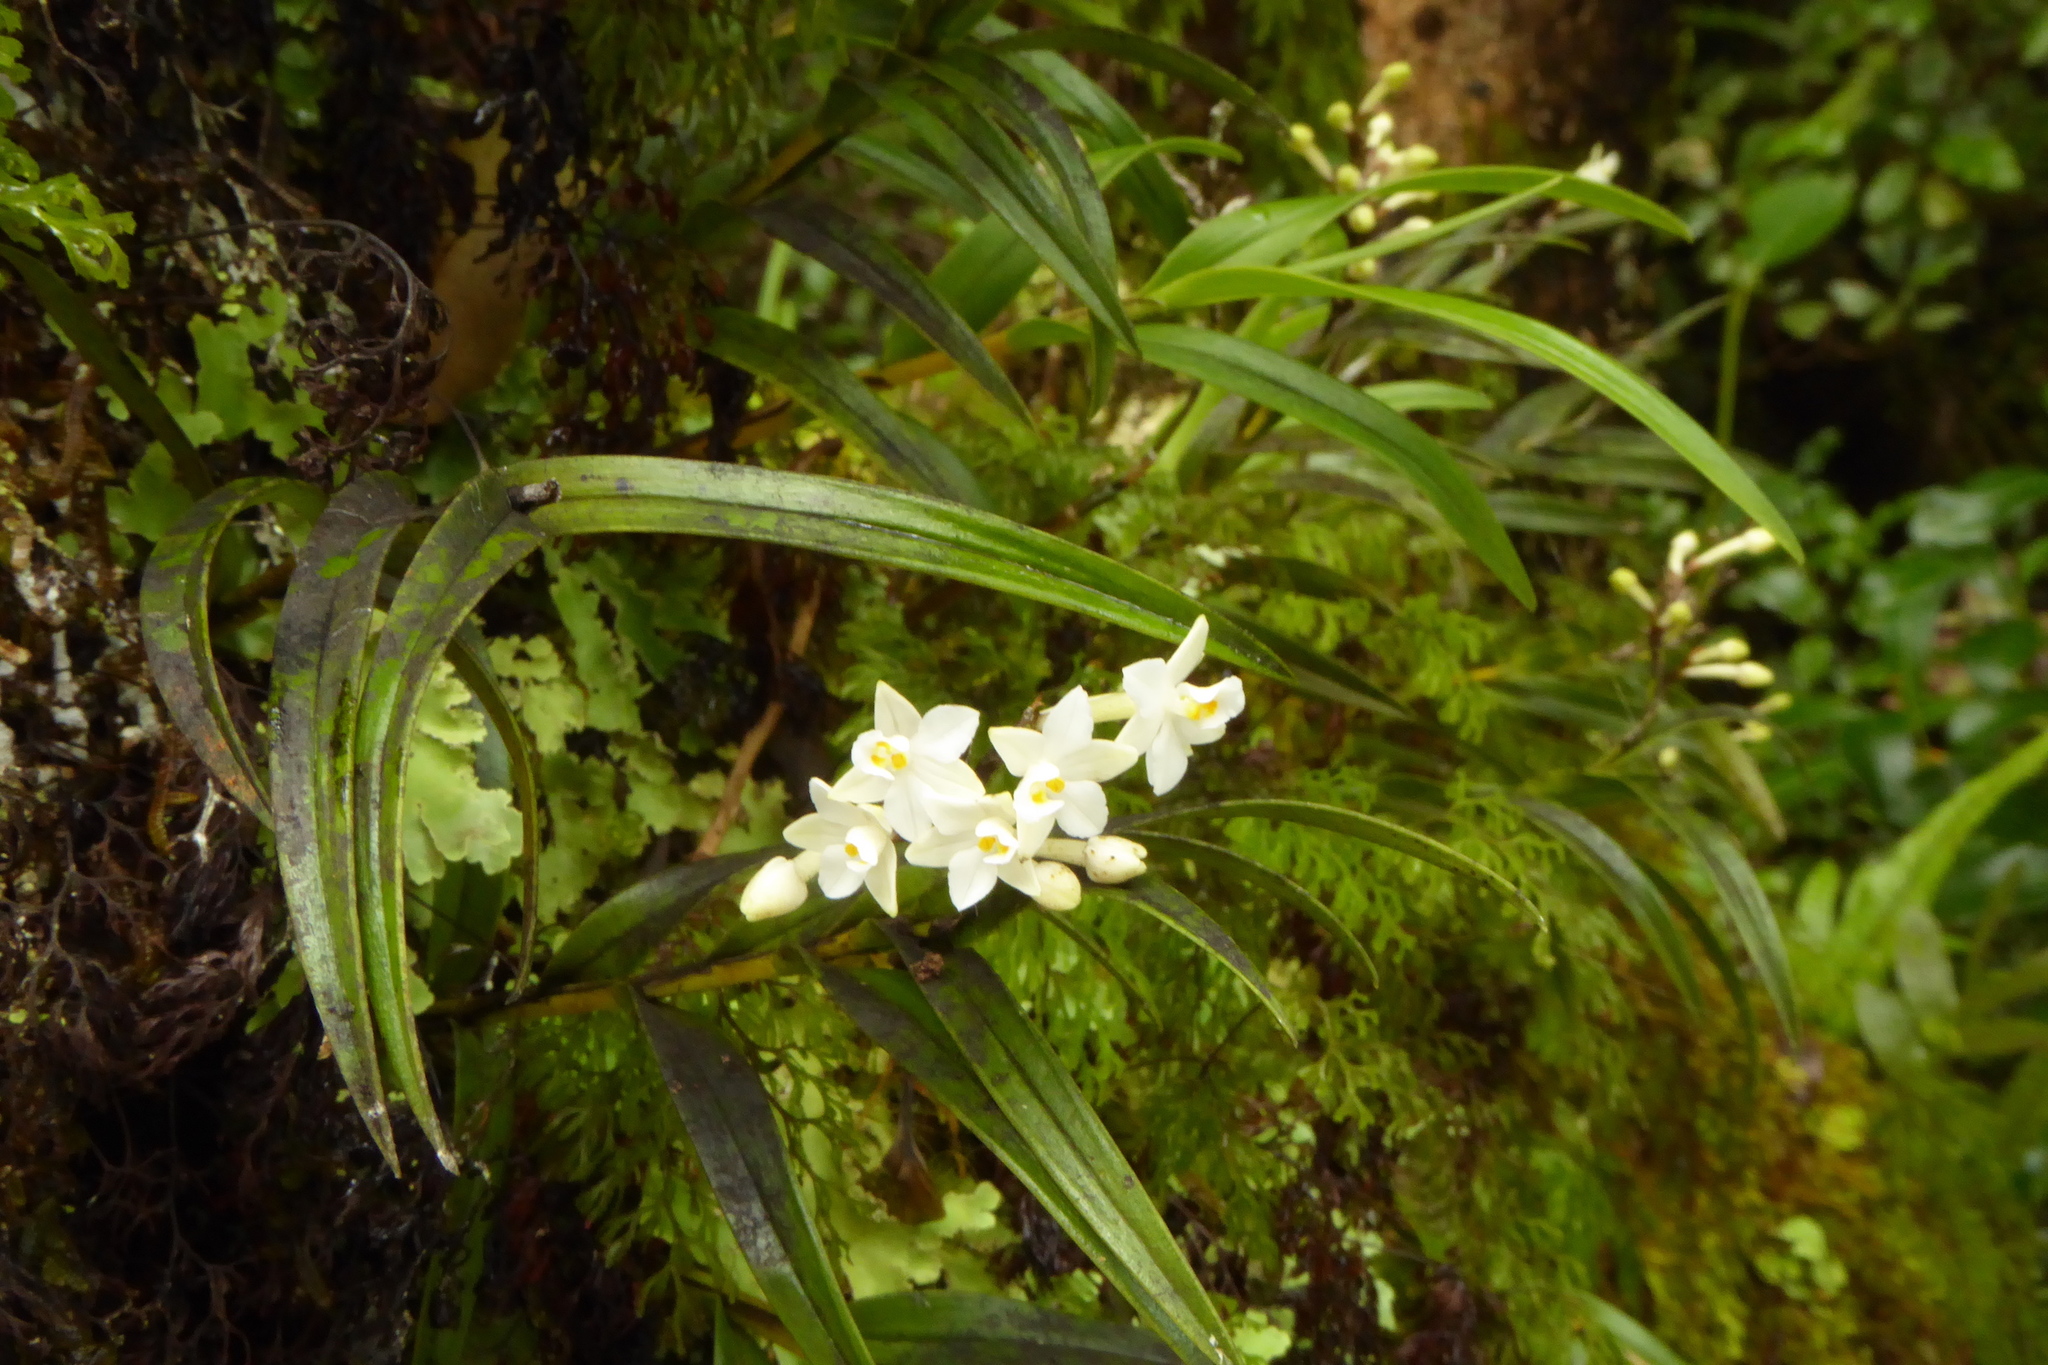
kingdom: Plantae
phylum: Tracheophyta
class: Liliopsida
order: Asparagales
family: Orchidaceae
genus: Earina
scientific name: Earina autumnalis
